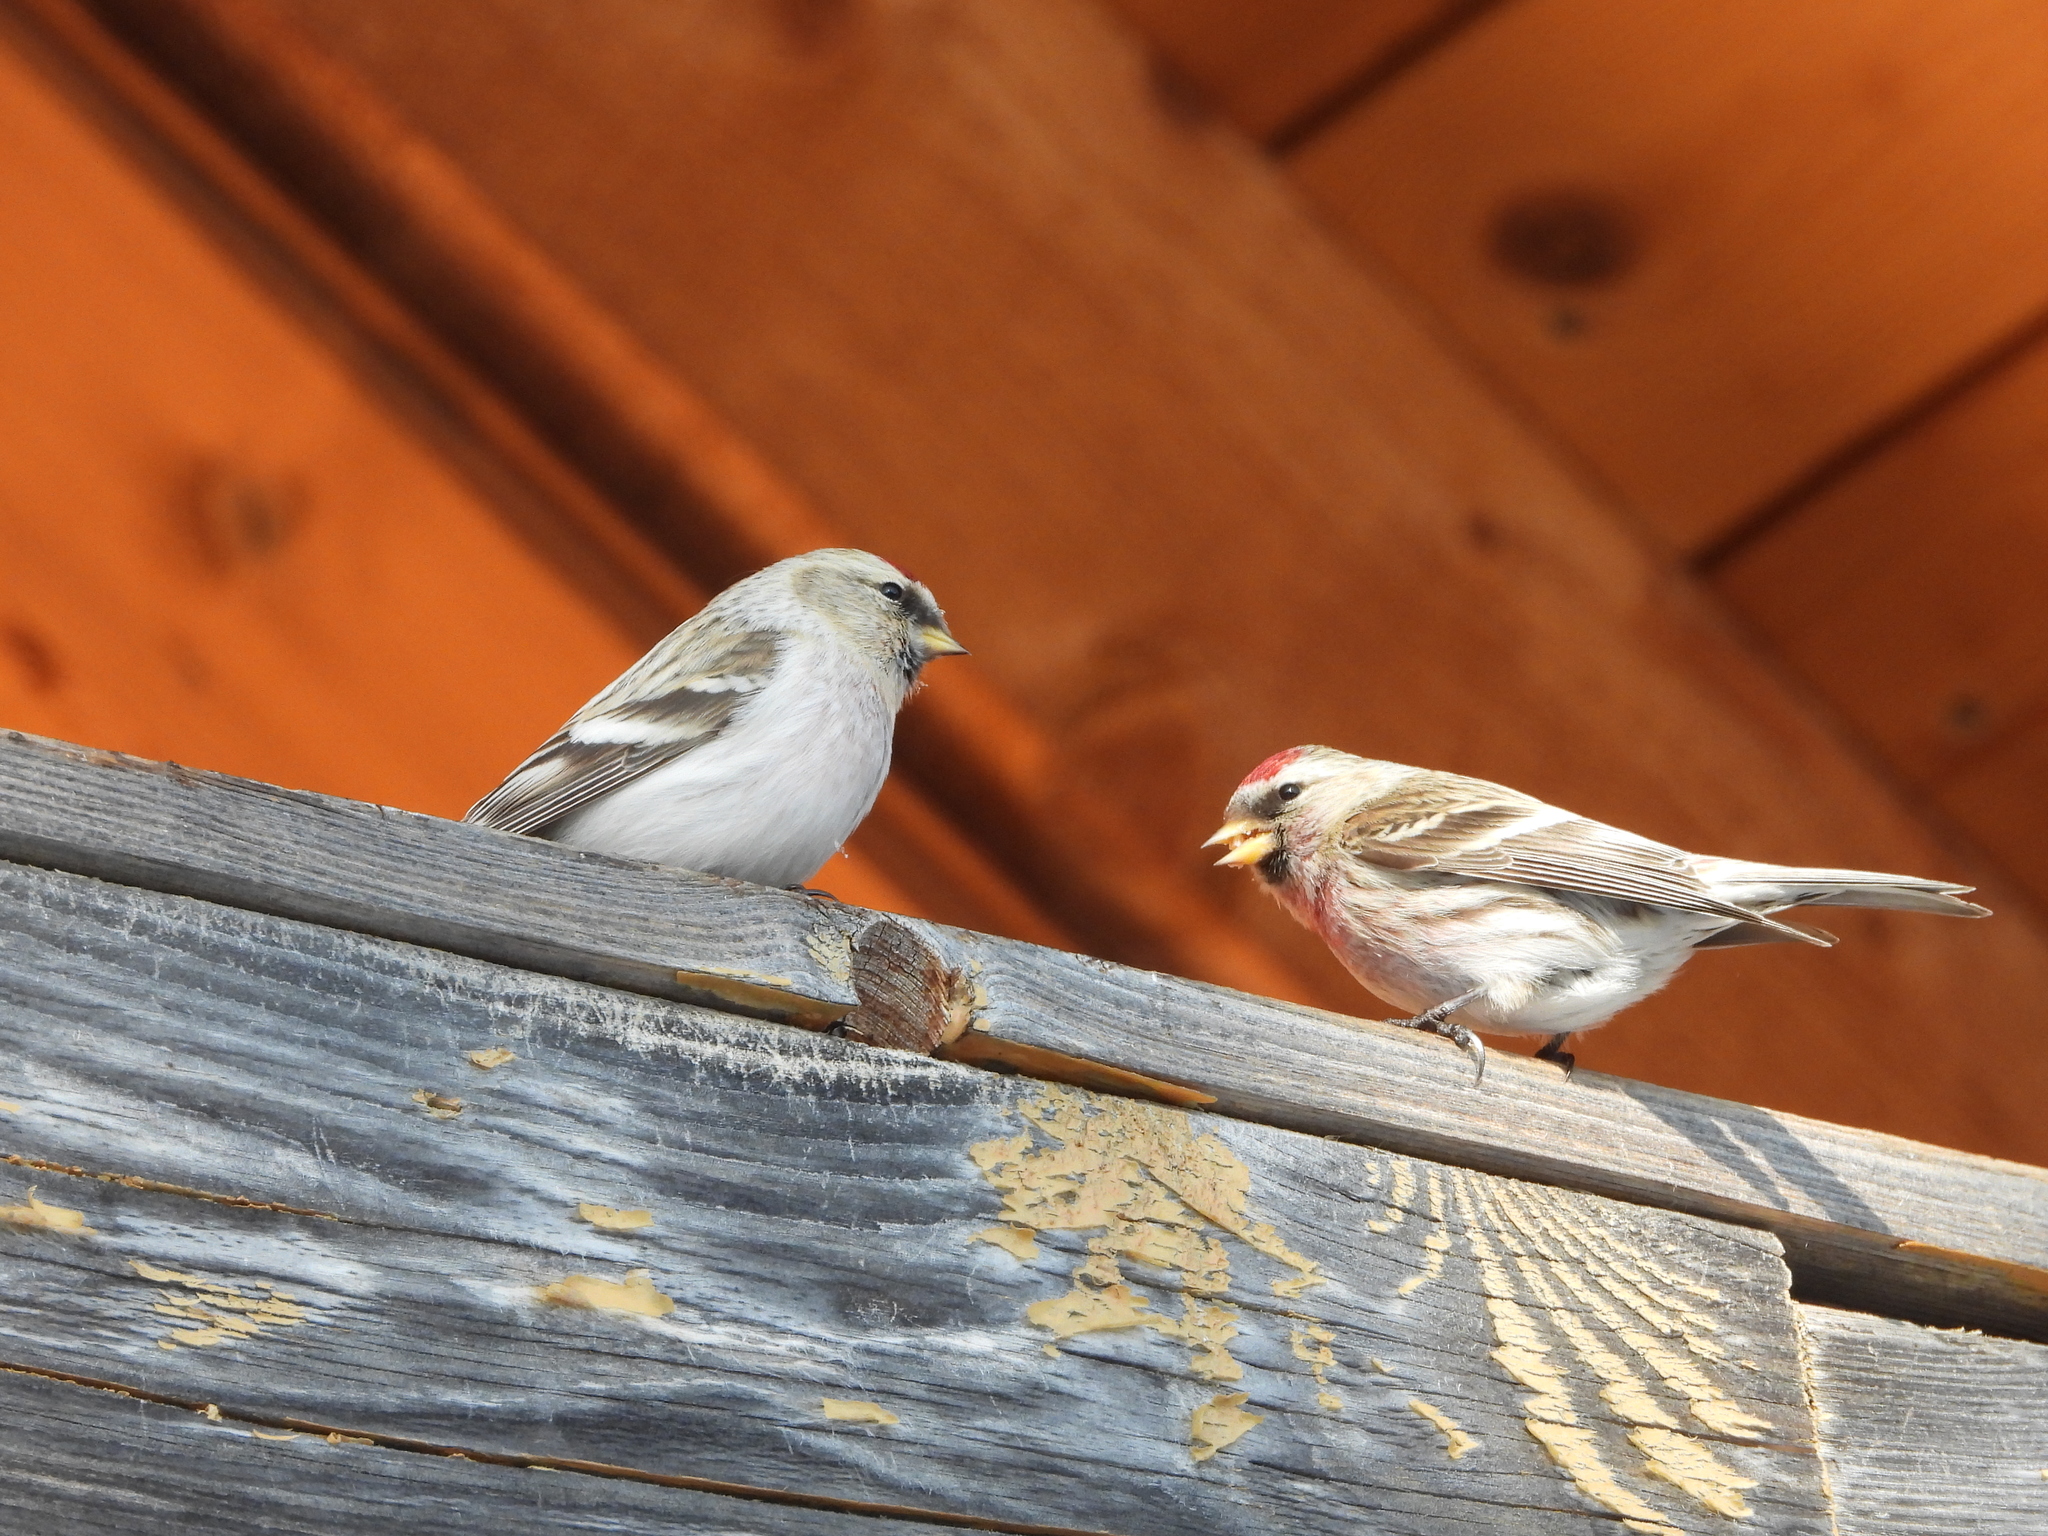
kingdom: Animalia
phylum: Chordata
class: Aves
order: Passeriformes
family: Fringillidae
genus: Acanthis
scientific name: Acanthis hornemanni
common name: Arctic redpoll
